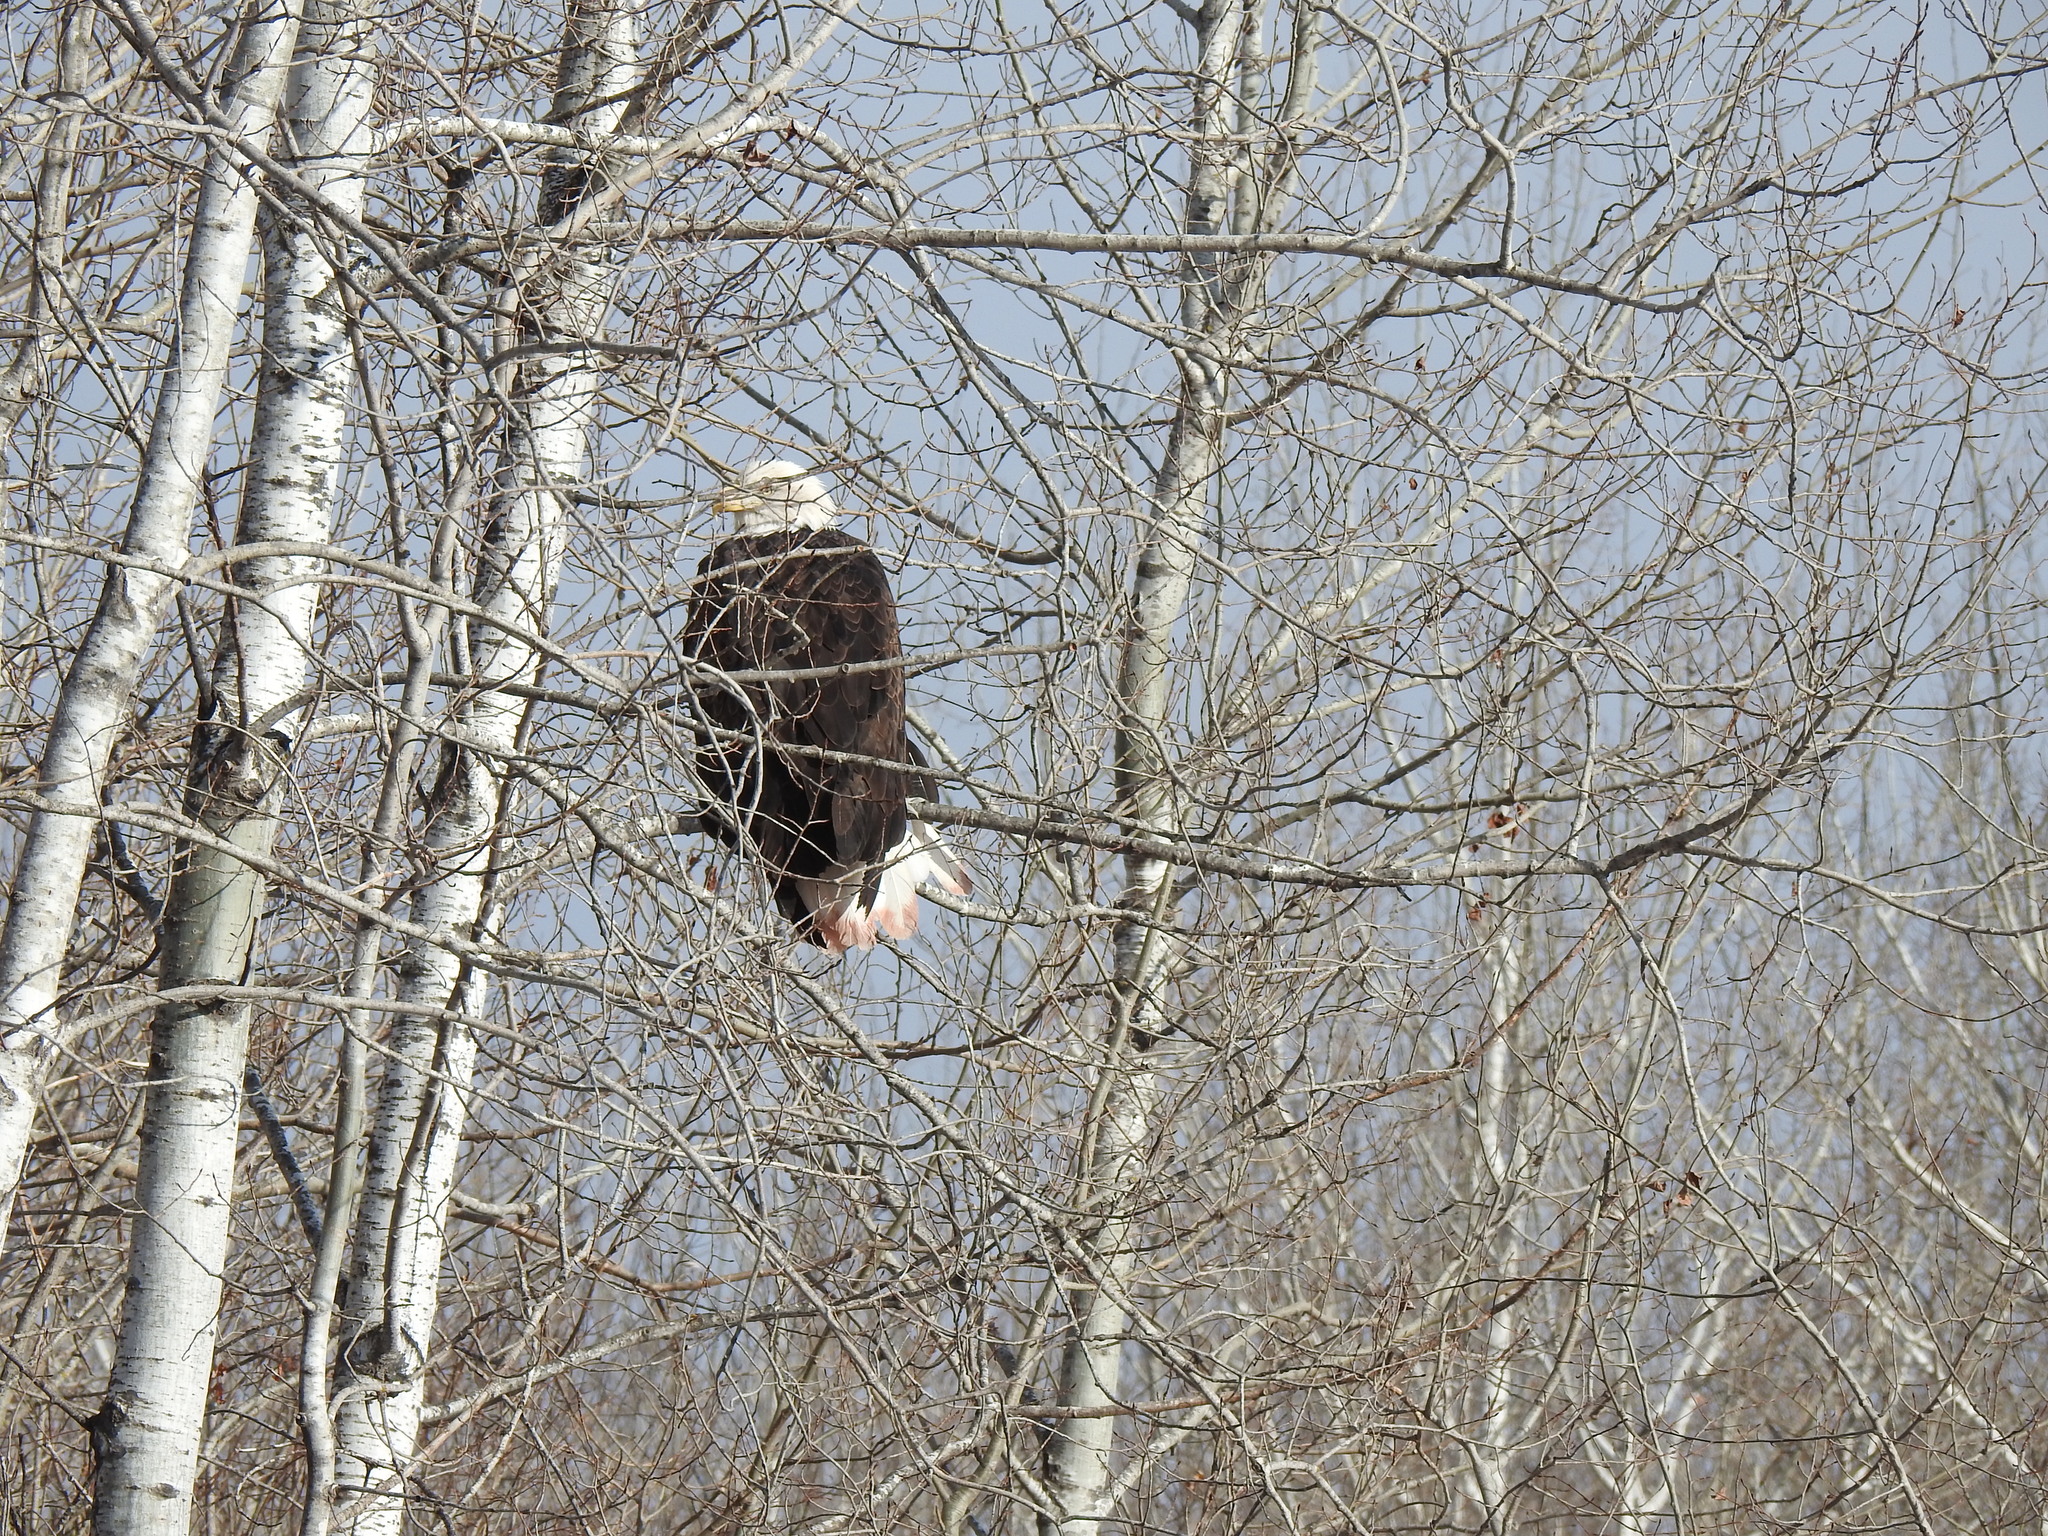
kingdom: Animalia
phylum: Chordata
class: Aves
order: Accipitriformes
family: Accipitridae
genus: Haliaeetus
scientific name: Haliaeetus leucocephalus
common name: Bald eagle
